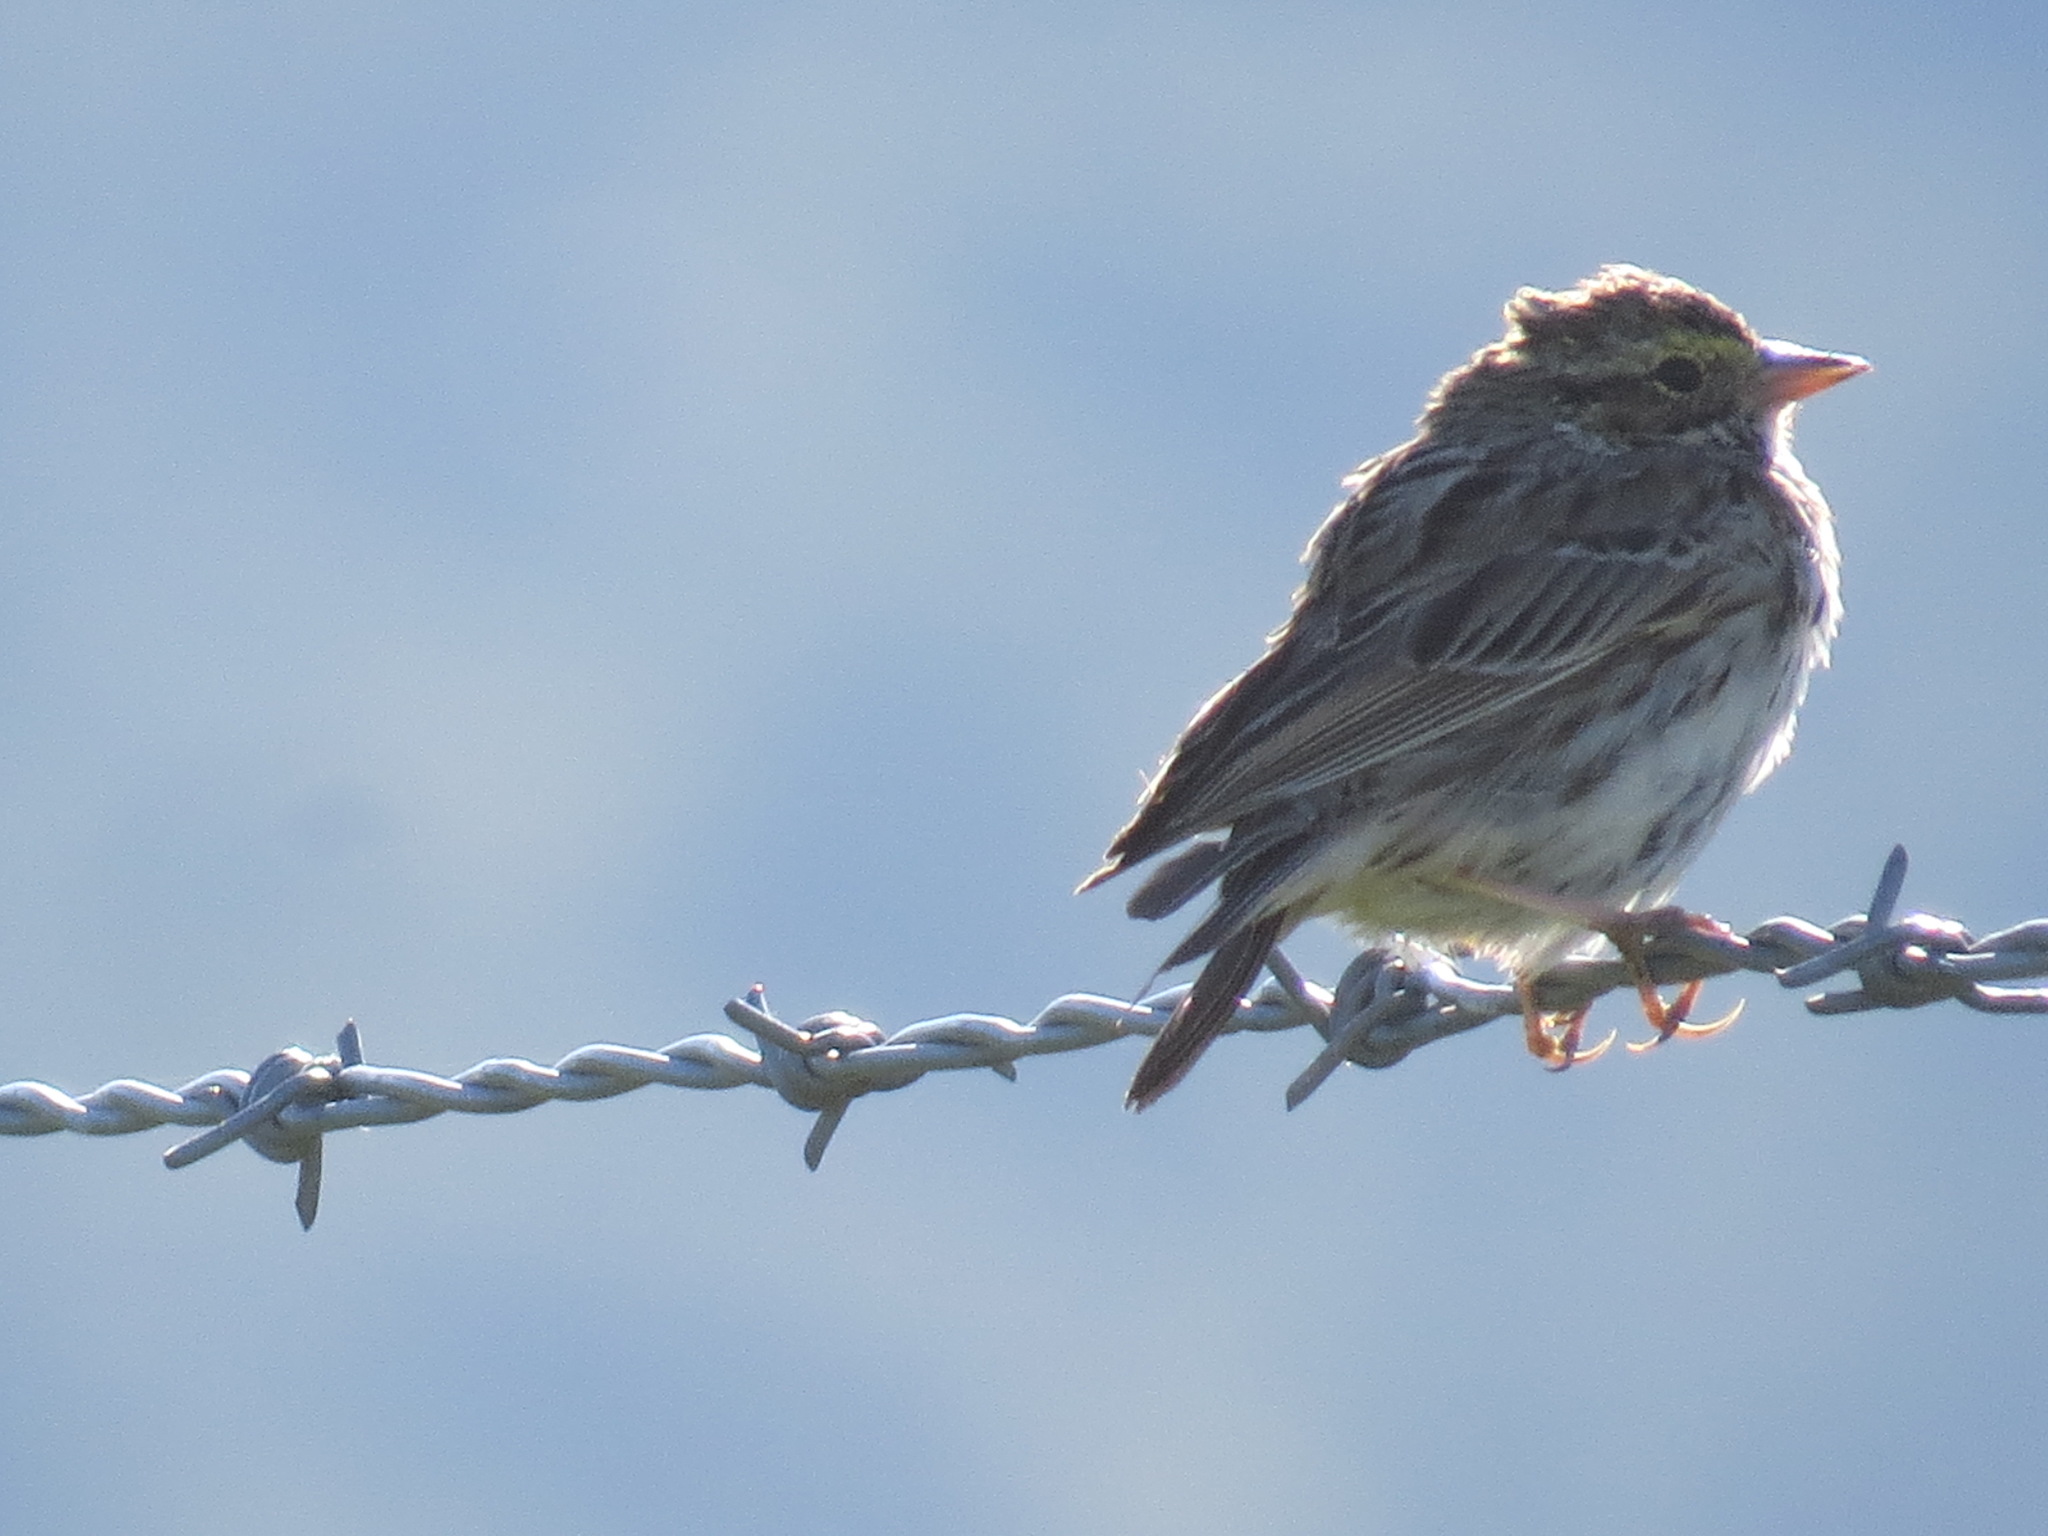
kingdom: Animalia
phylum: Chordata
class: Aves
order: Passeriformes
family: Passerellidae
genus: Passerculus
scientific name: Passerculus sandwichensis
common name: Savannah sparrow
